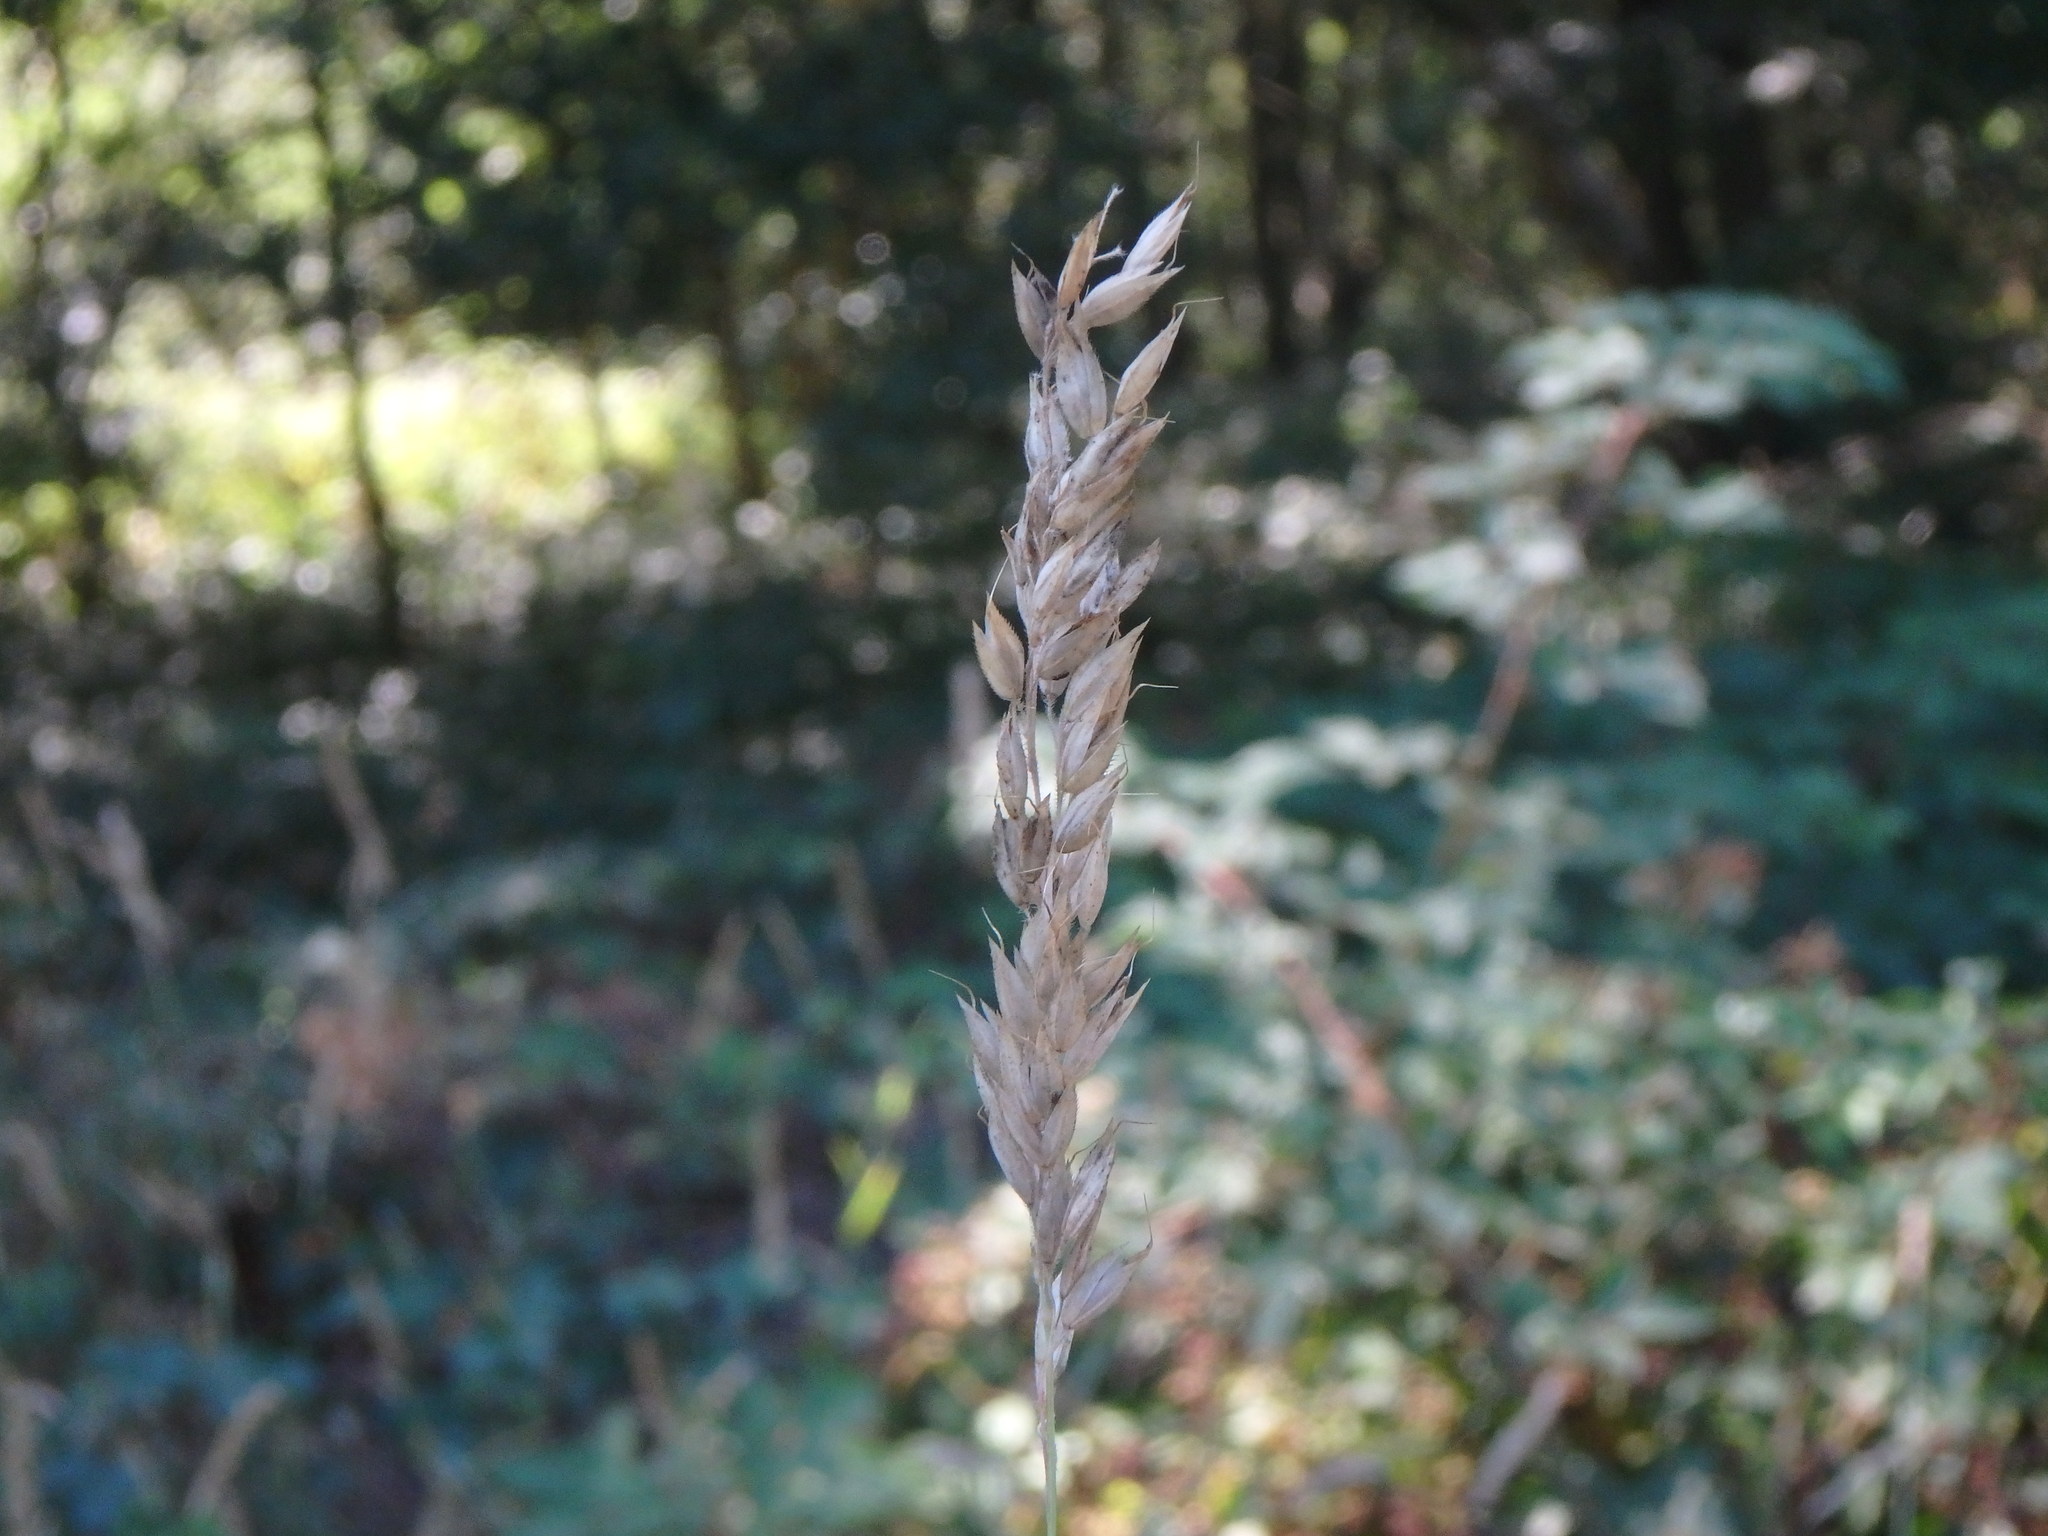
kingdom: Plantae
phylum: Tracheophyta
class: Liliopsida
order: Poales
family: Poaceae
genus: Holcus
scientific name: Holcus mollis
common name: Creeping velvetgrass
